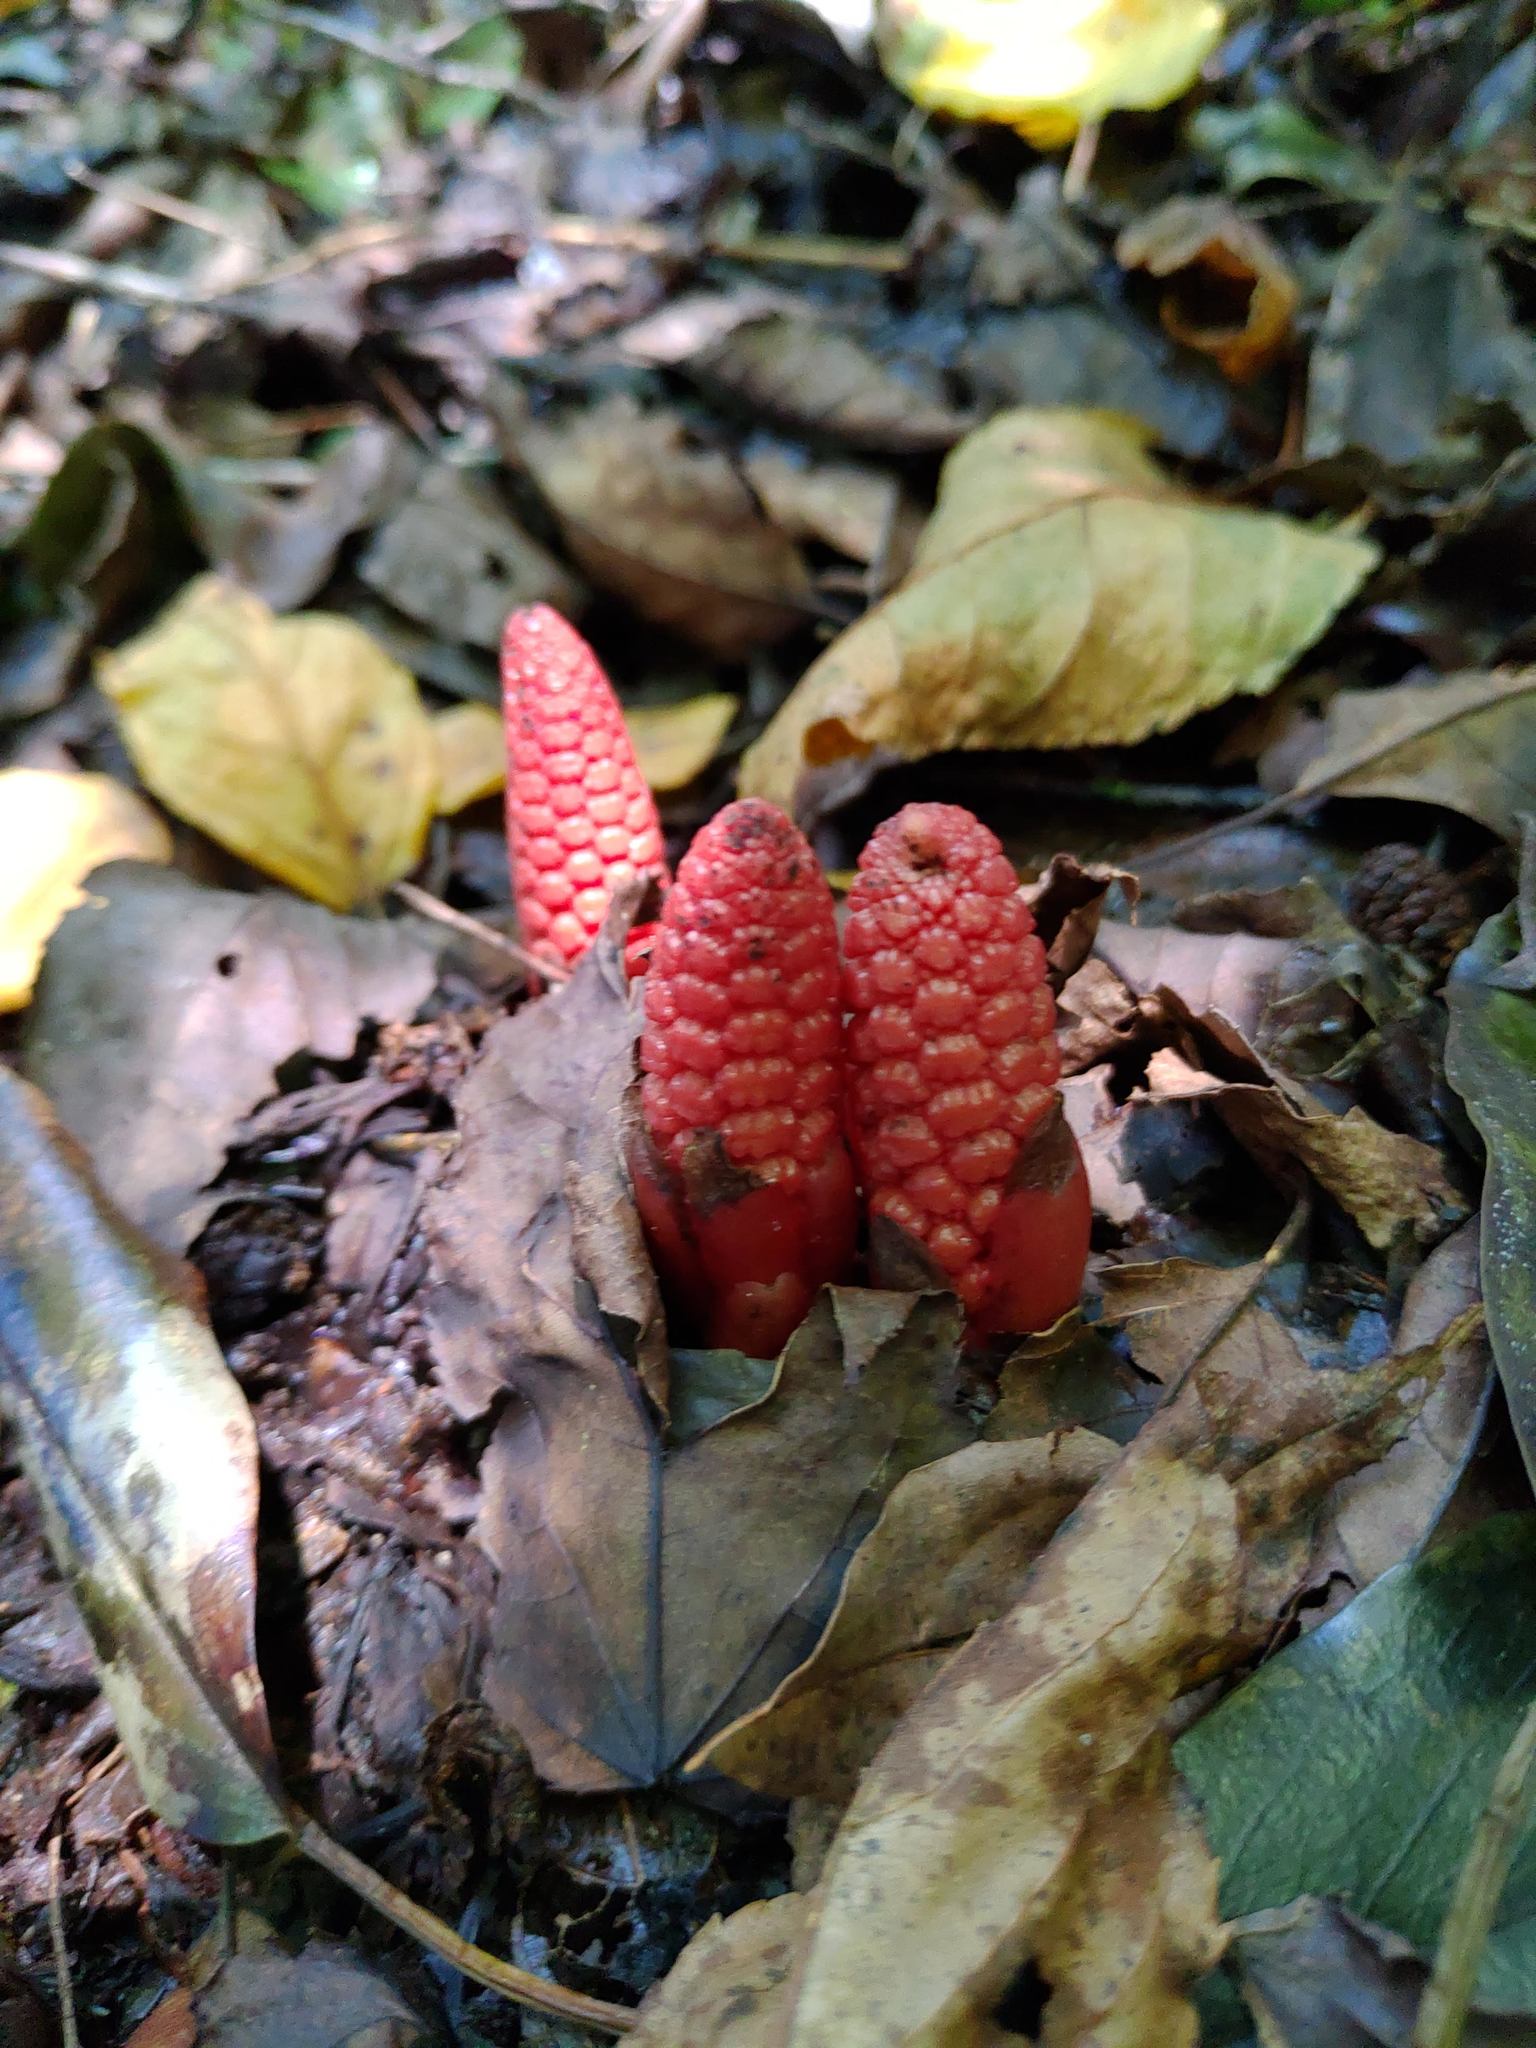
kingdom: Plantae
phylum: Tracheophyta
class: Magnoliopsida
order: Santalales
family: Balanophoraceae
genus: Balanophora
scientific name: Balanophora laxiflora
